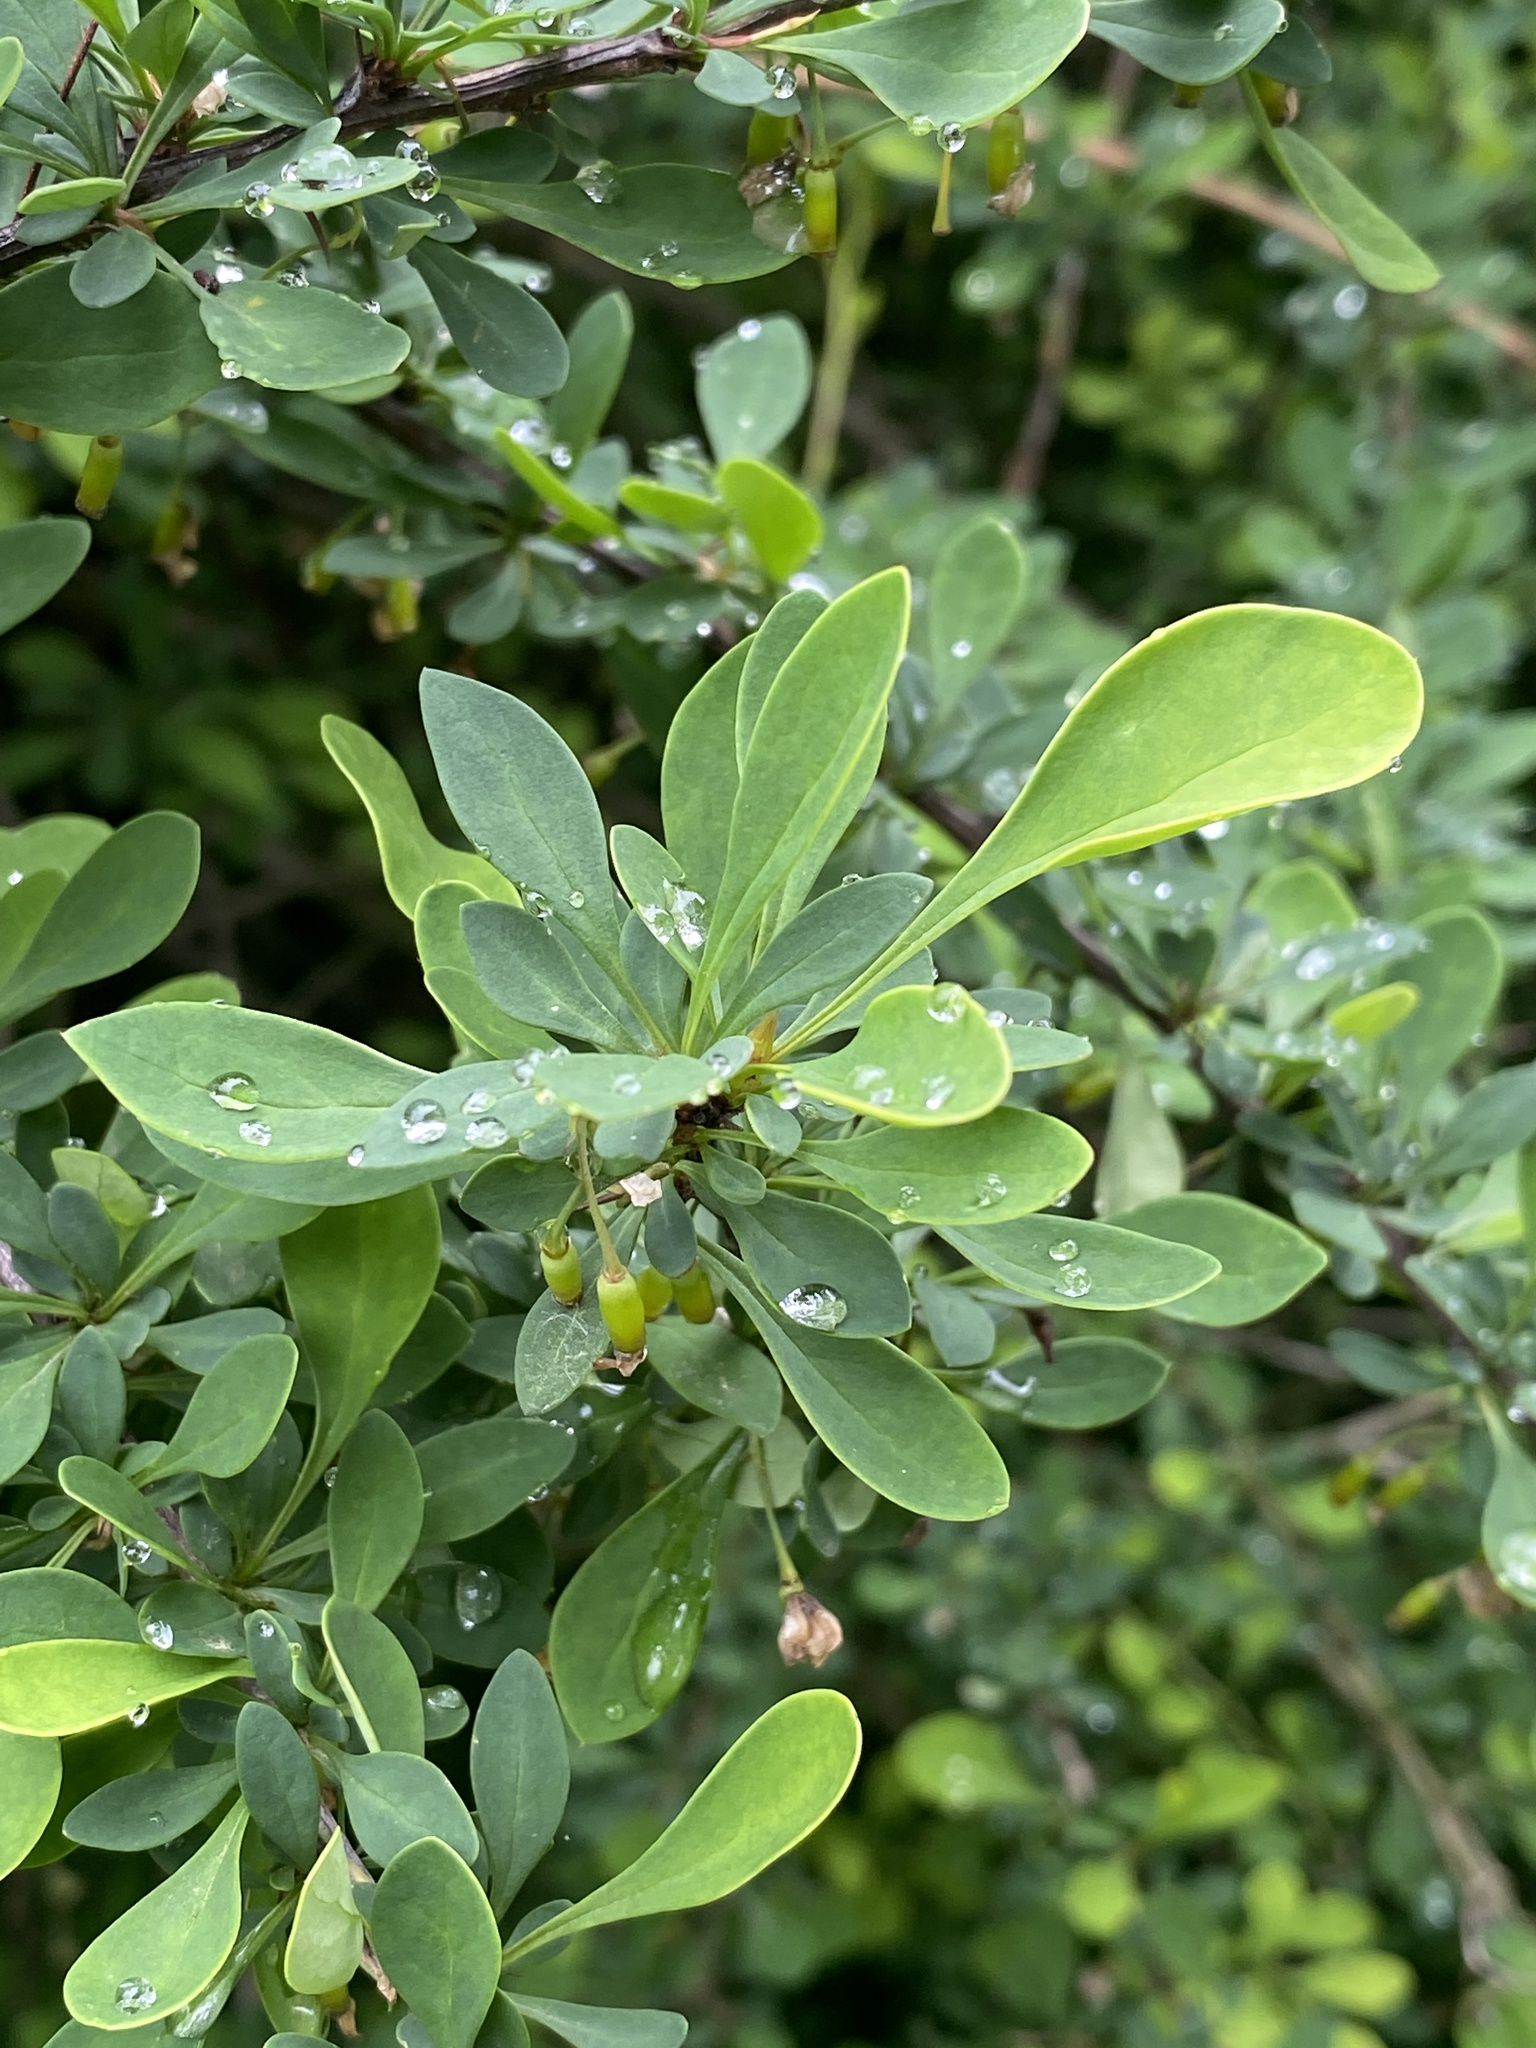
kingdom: Plantae
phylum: Tracheophyta
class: Magnoliopsida
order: Ranunculales
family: Berberidaceae
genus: Berberis
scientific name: Berberis thunbergii
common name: Japanese barberry
